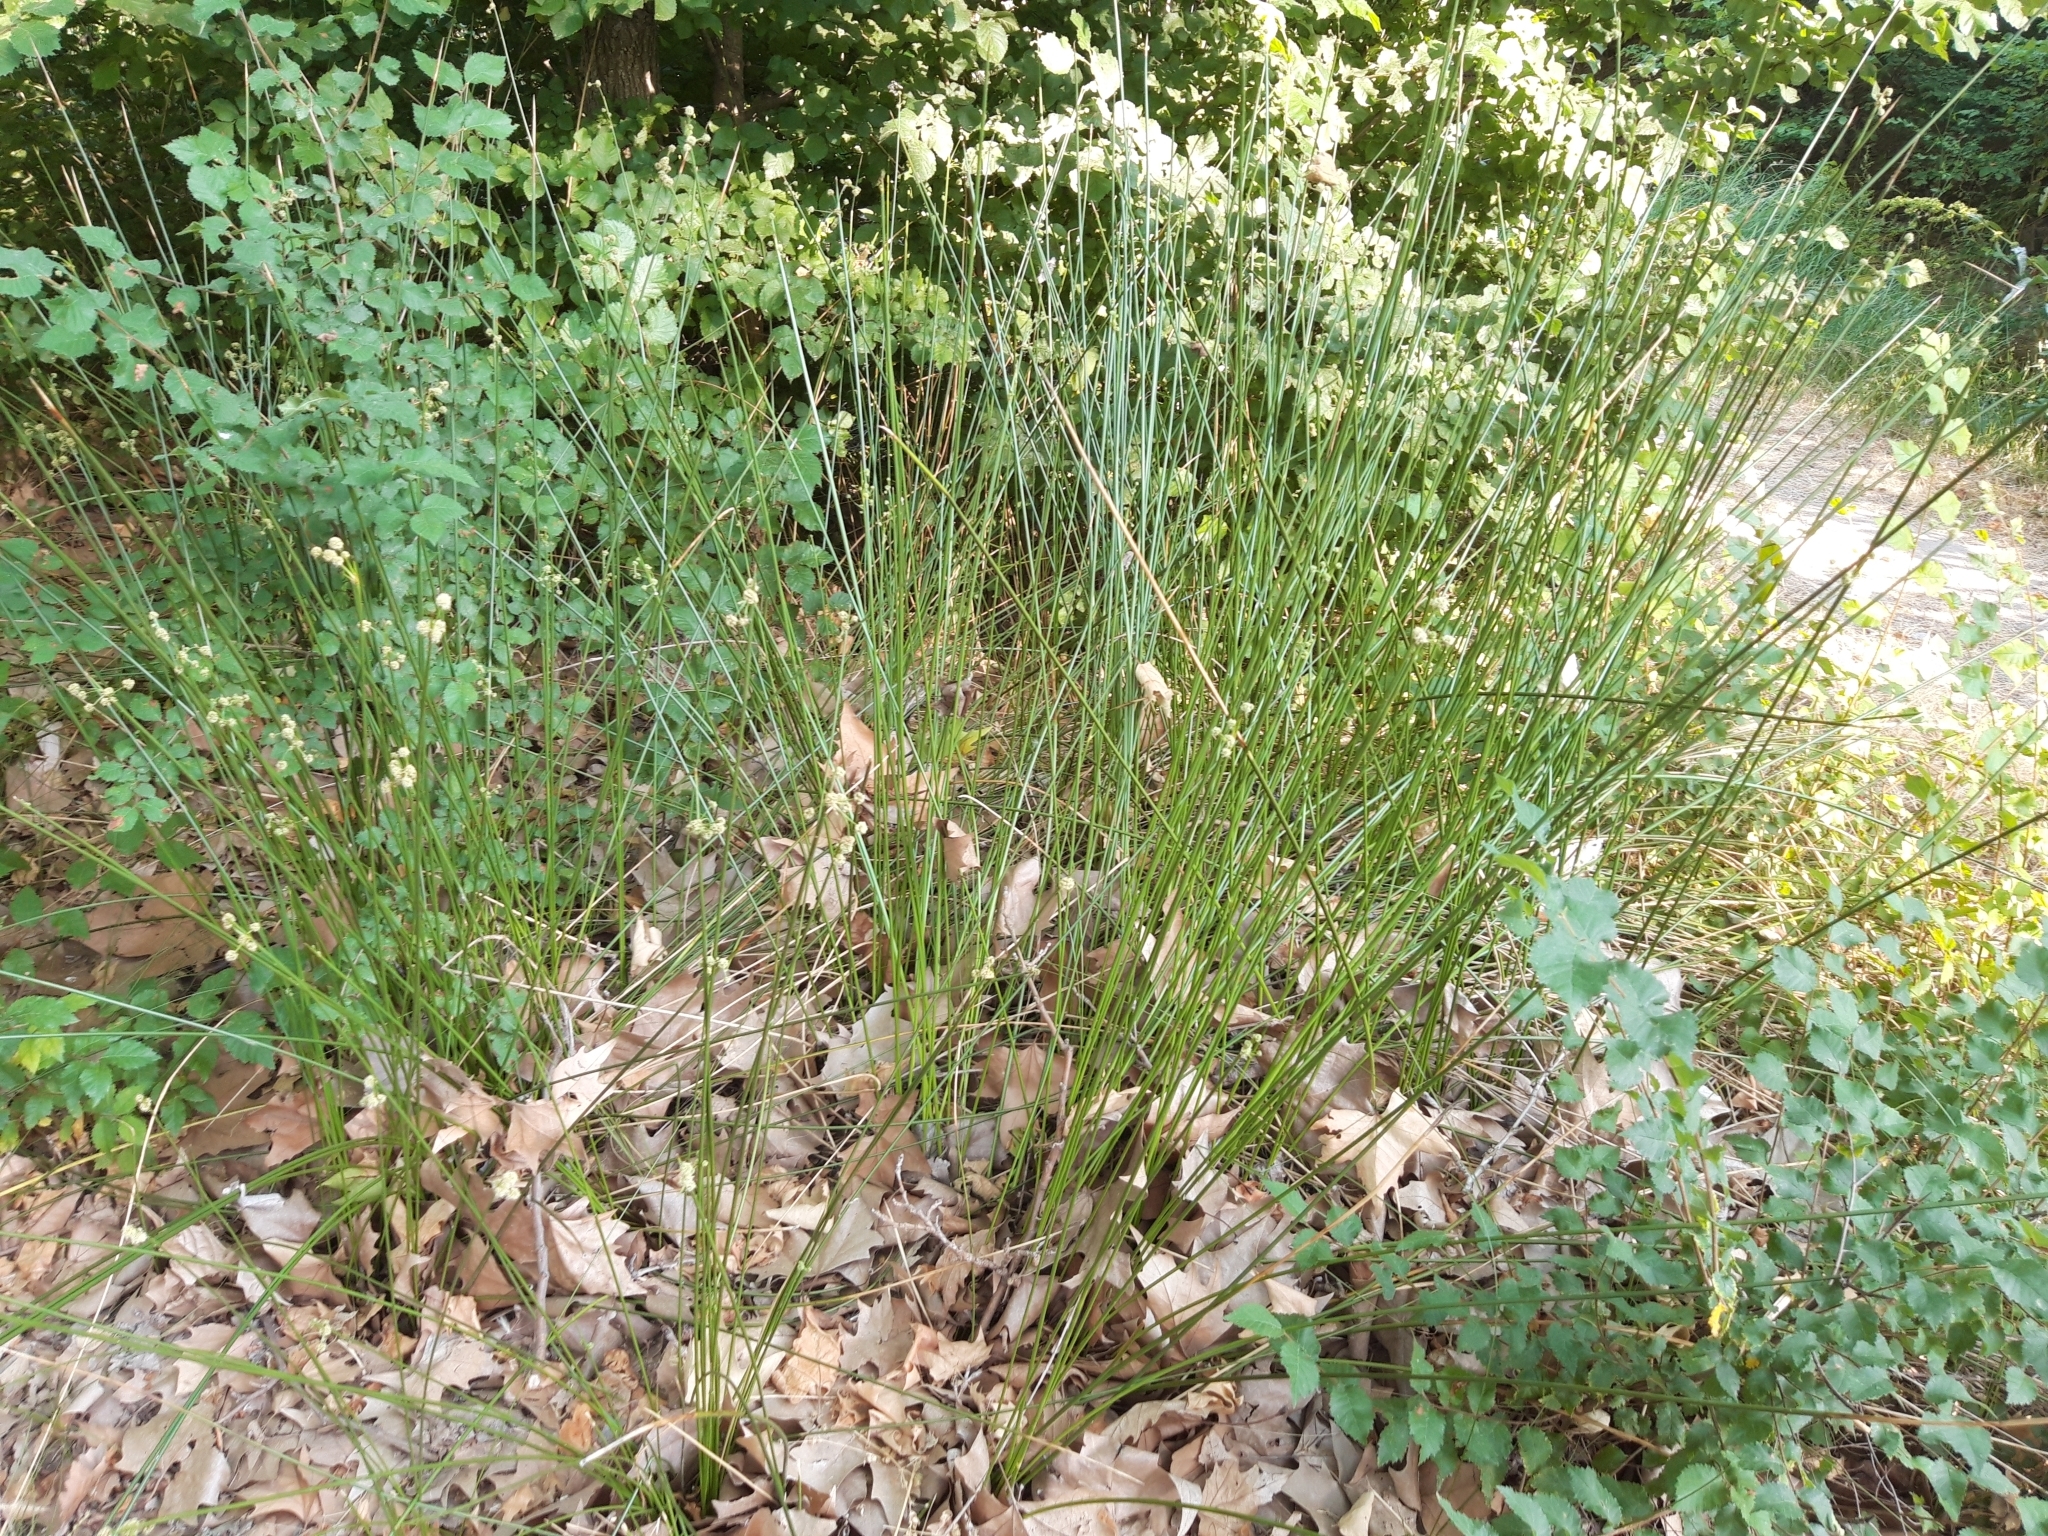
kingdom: Plantae
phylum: Tracheophyta
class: Liliopsida
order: Poales
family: Cyperaceae
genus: Scirpoides
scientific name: Scirpoides holoschoenus
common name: Round-headed club-rush
